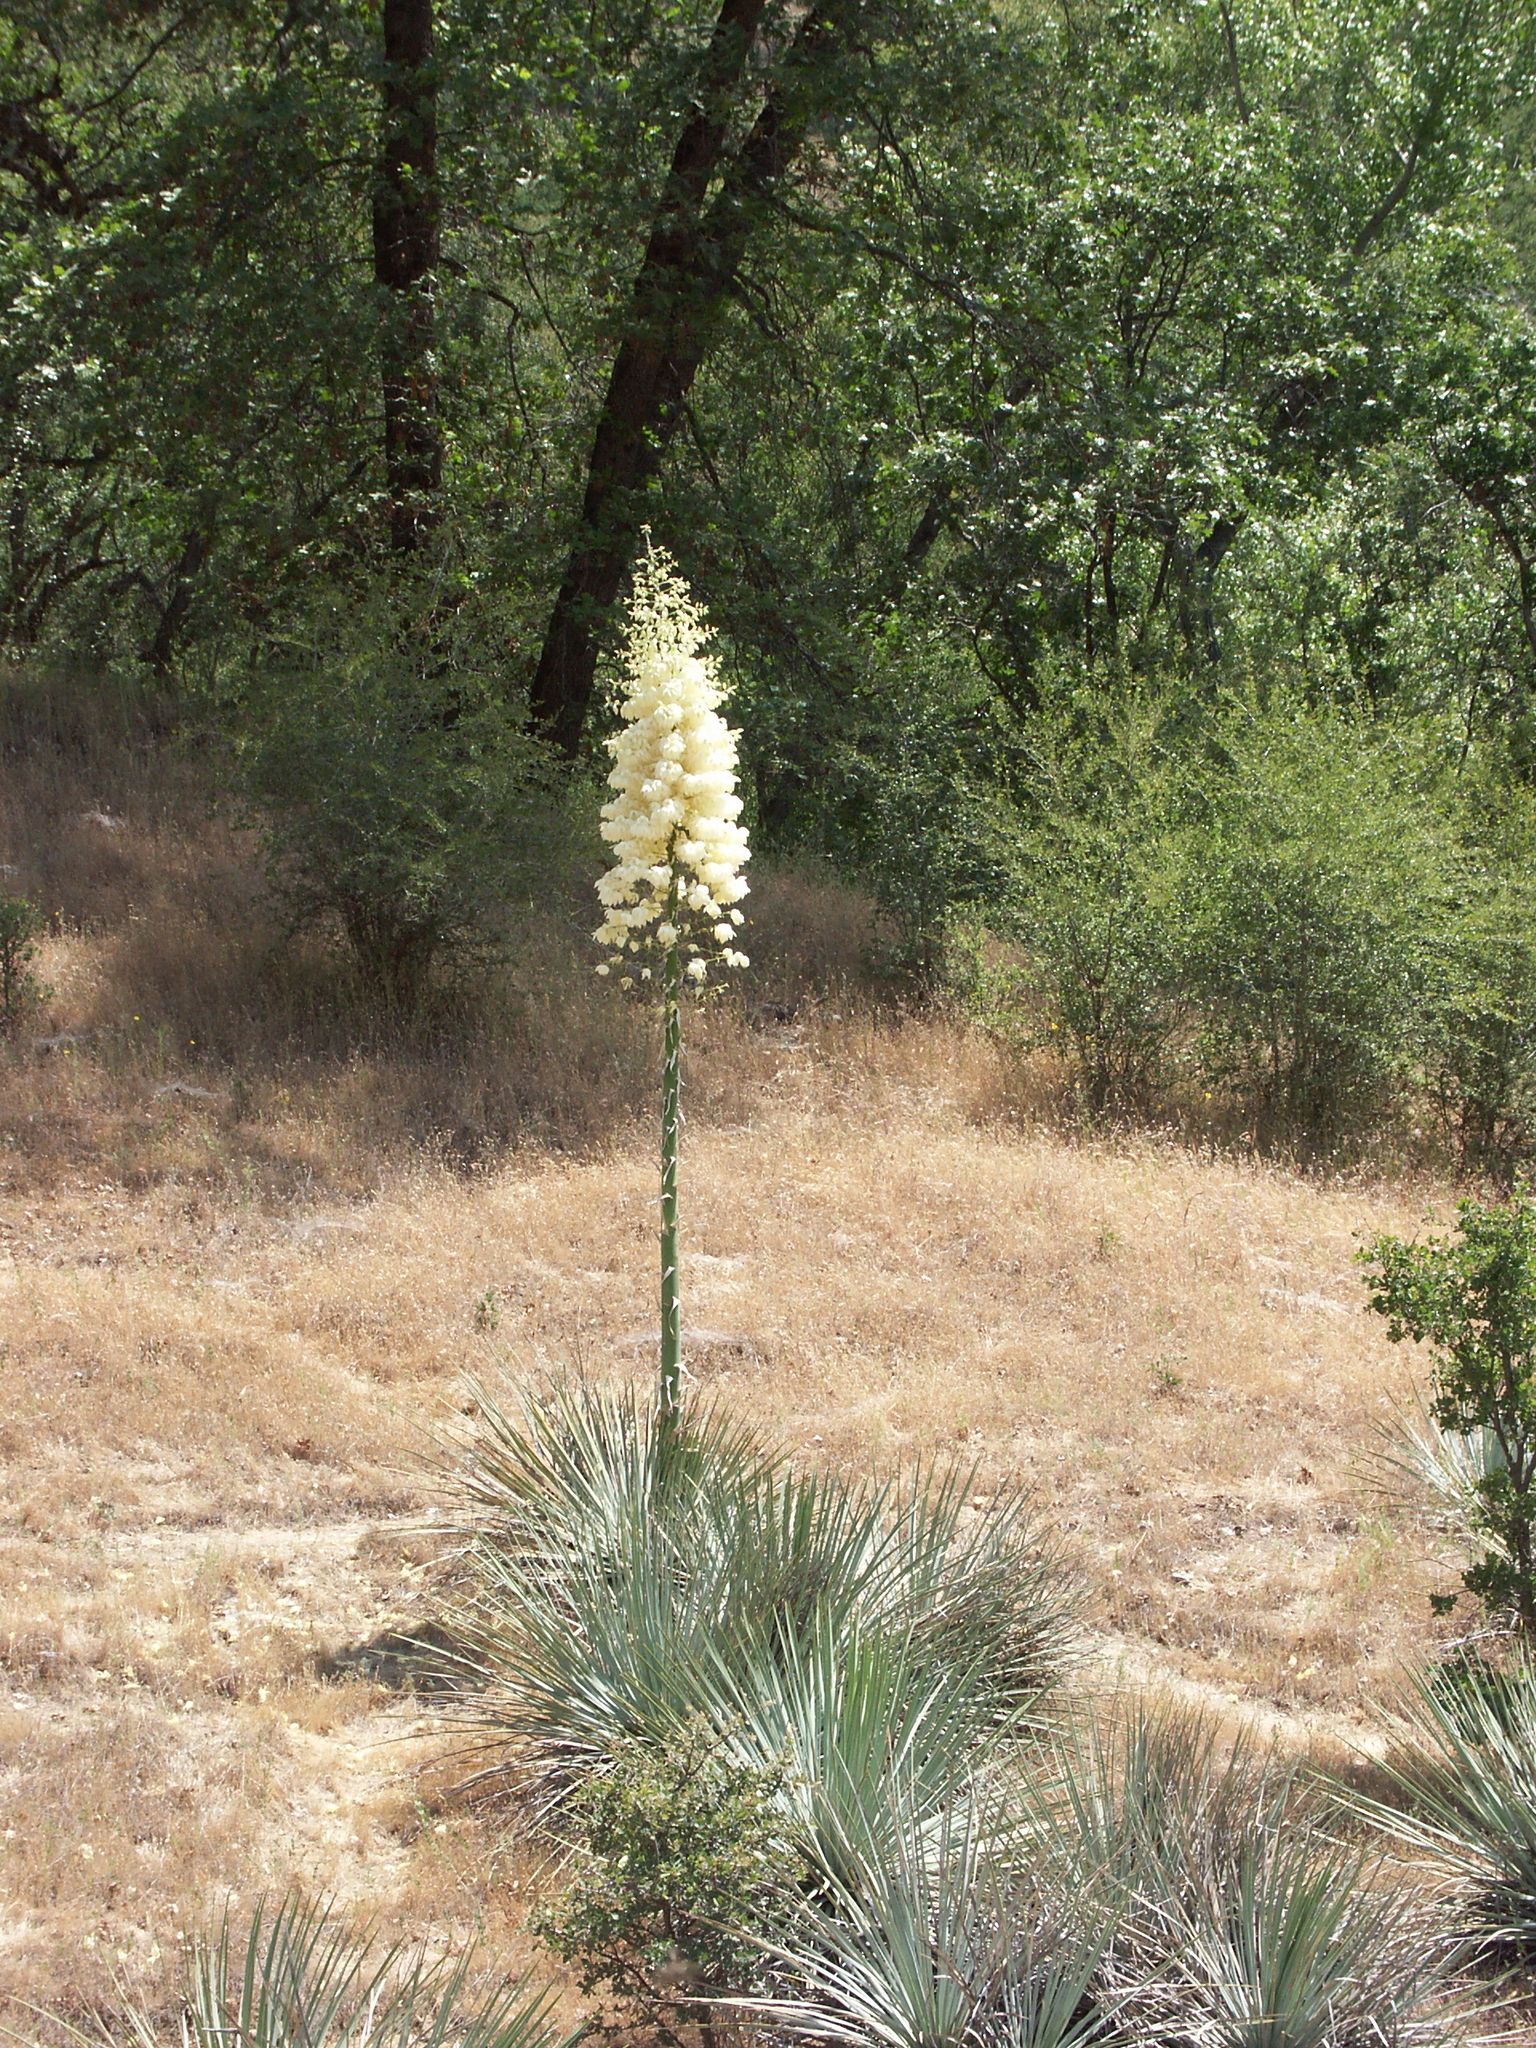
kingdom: Plantae
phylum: Tracheophyta
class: Liliopsida
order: Asparagales
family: Asparagaceae
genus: Hesperoyucca
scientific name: Hesperoyucca whipplei
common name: Our lord's-candle
